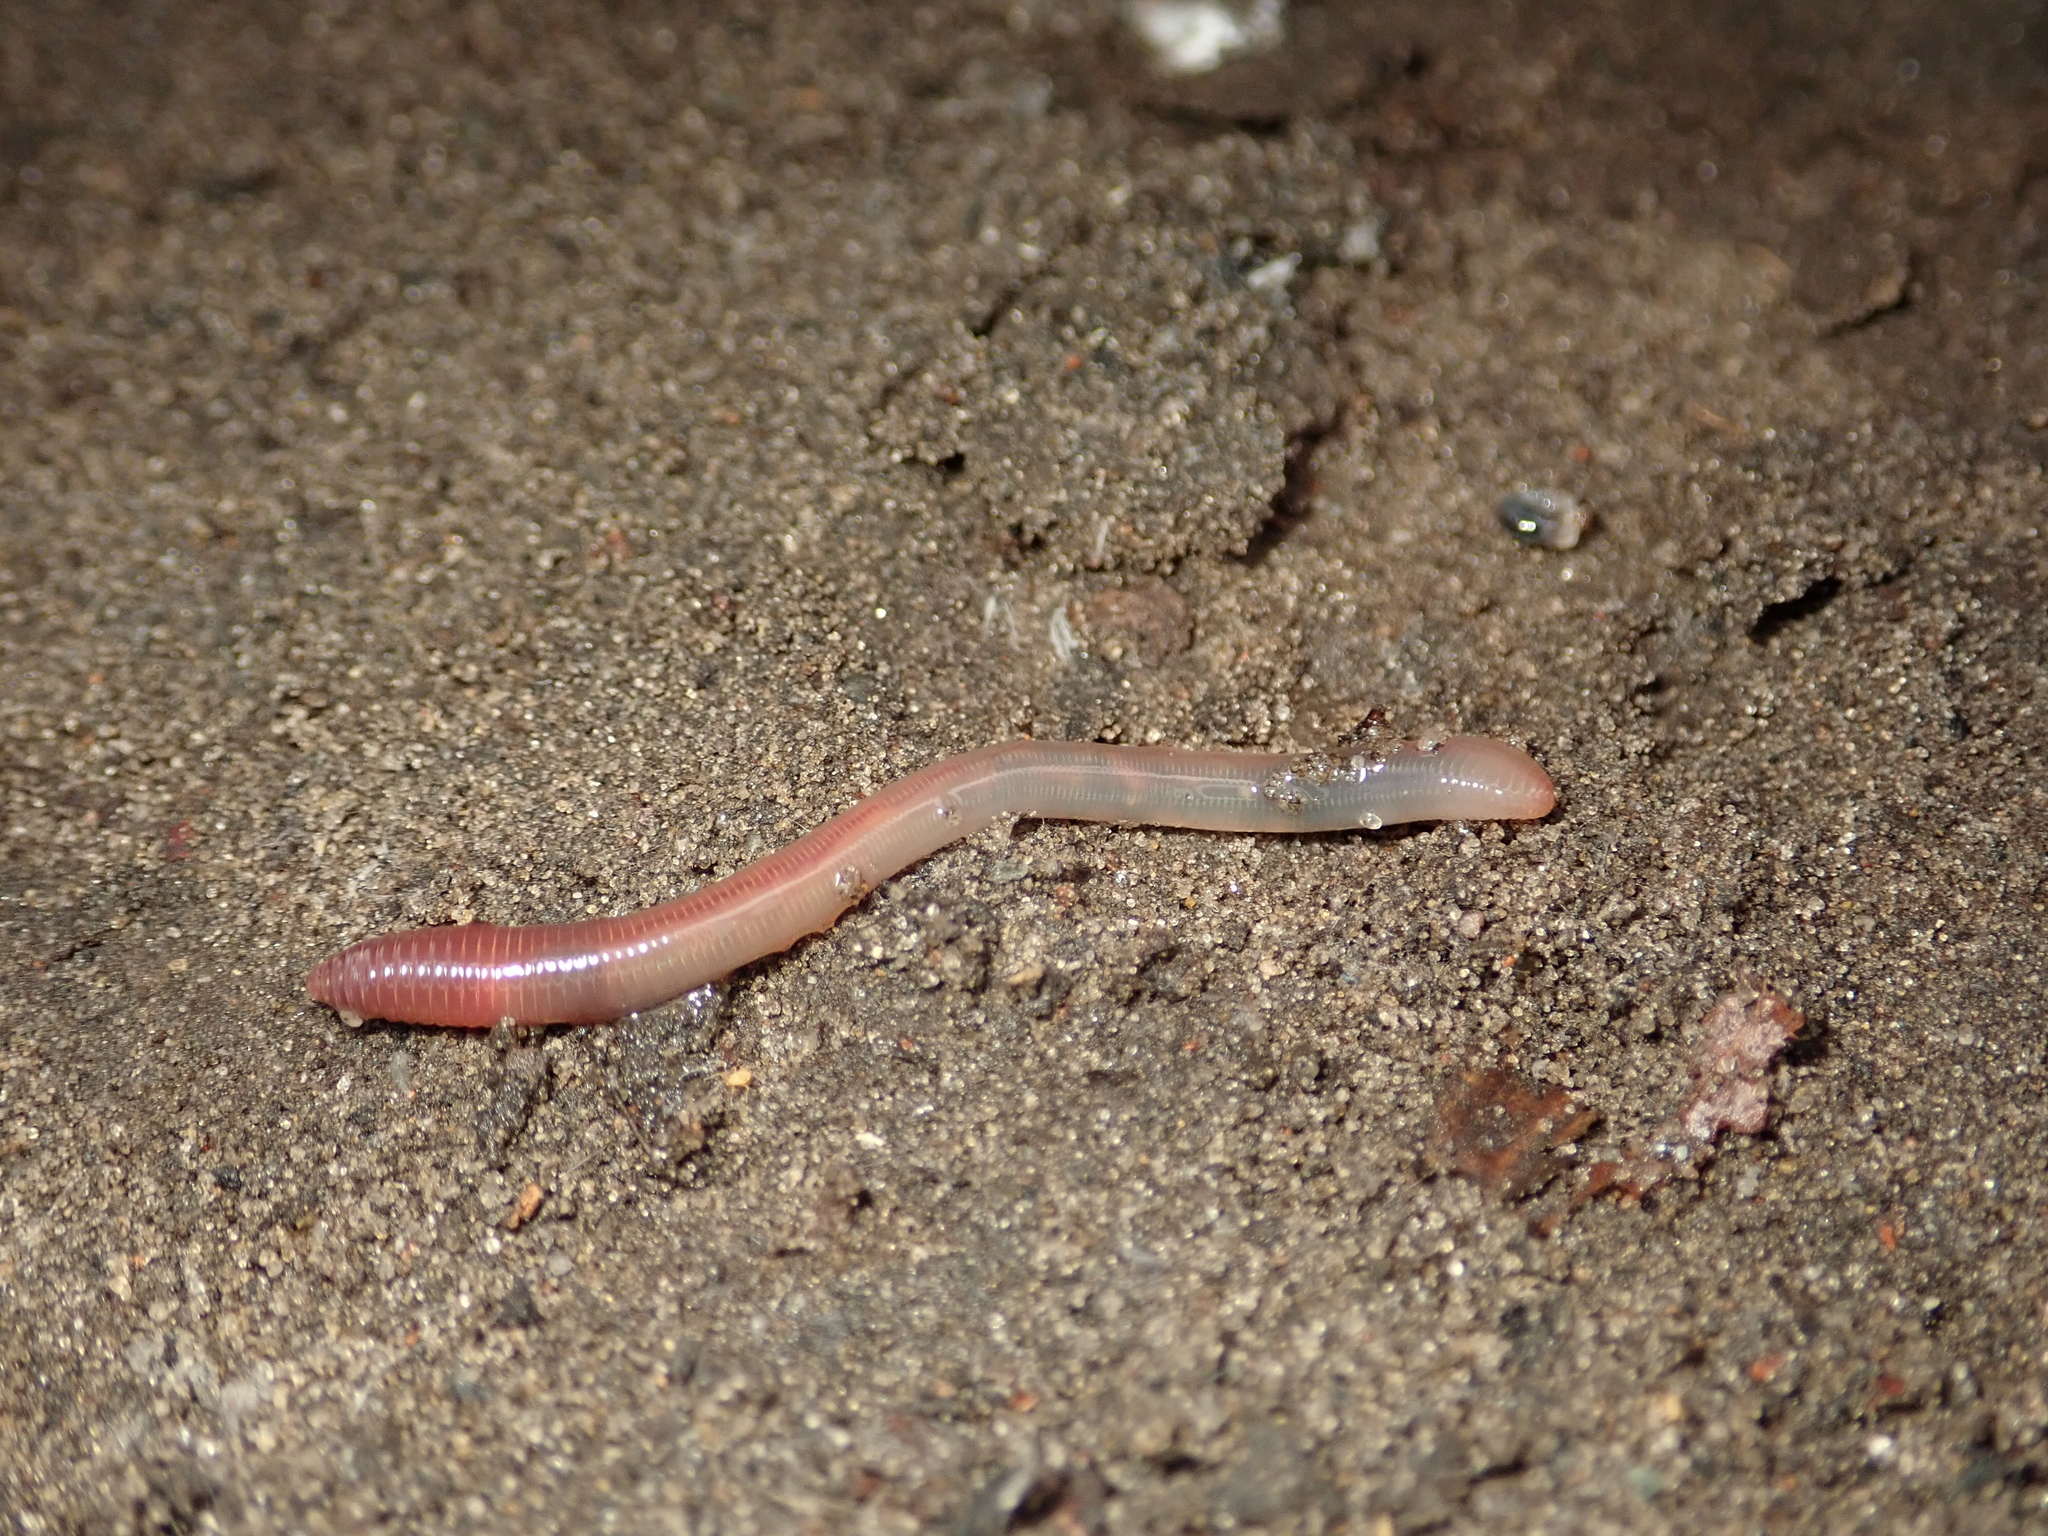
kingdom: Animalia
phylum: Annelida
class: Clitellata
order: Crassiclitellata
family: Lumbricidae
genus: Lumbricus
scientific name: Lumbricus terrestris
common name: Common earthworm
